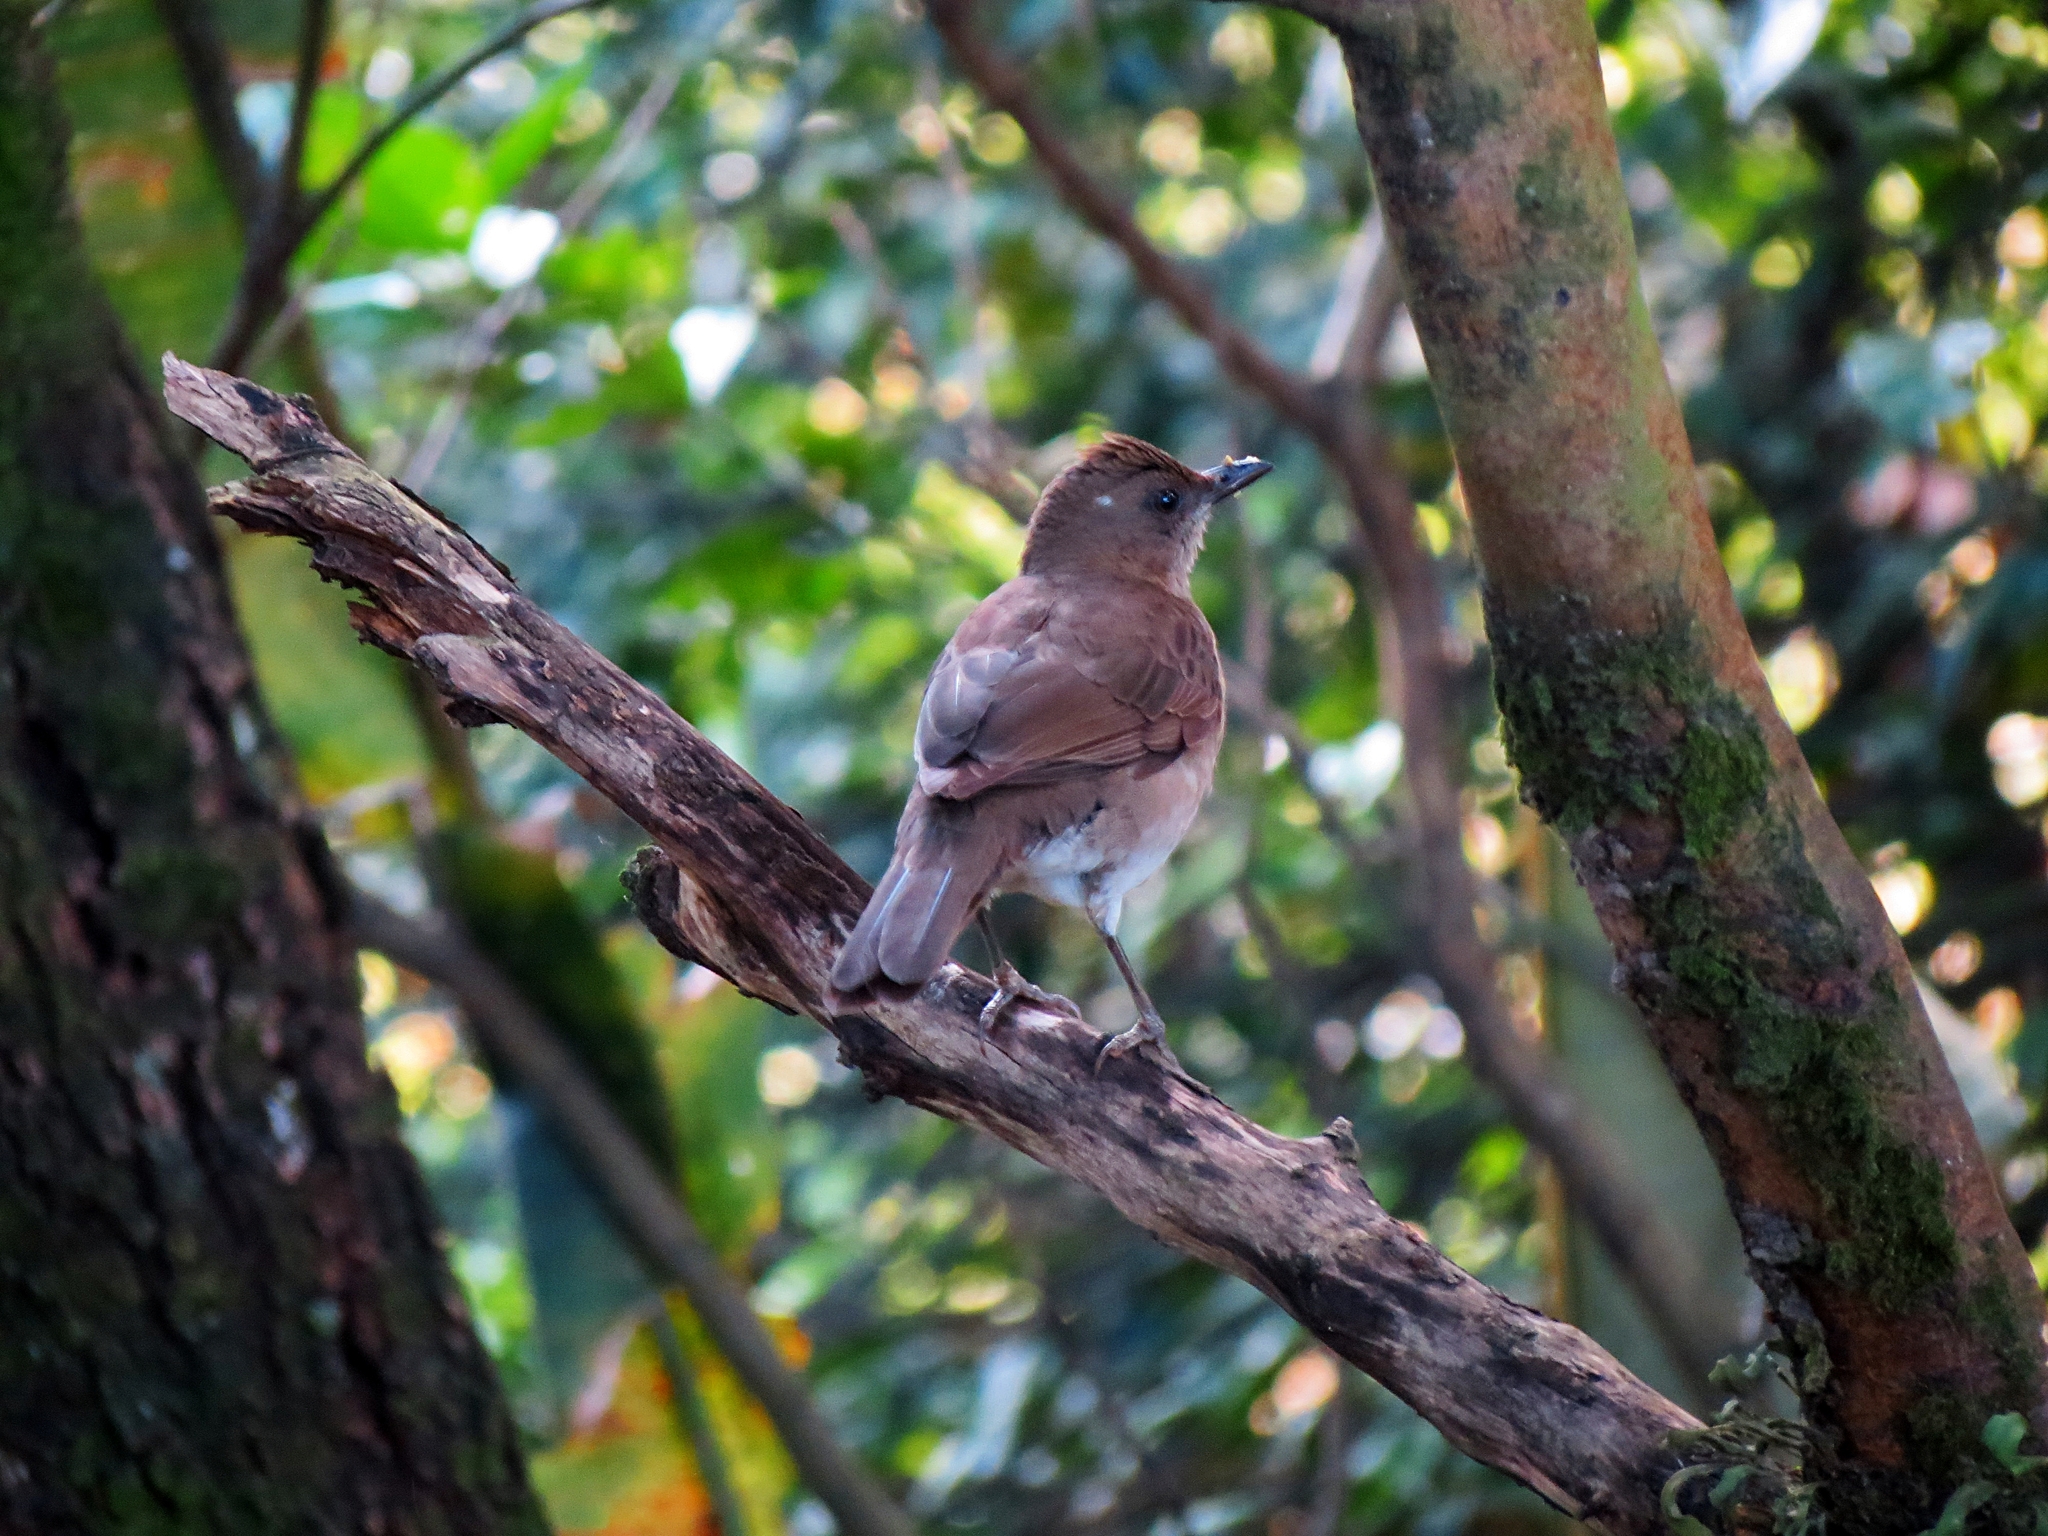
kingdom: Animalia
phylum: Chordata
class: Aves
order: Passeriformes
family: Turdidae
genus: Turdus
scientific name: Turdus ignobilis
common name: Black-billed thrush
